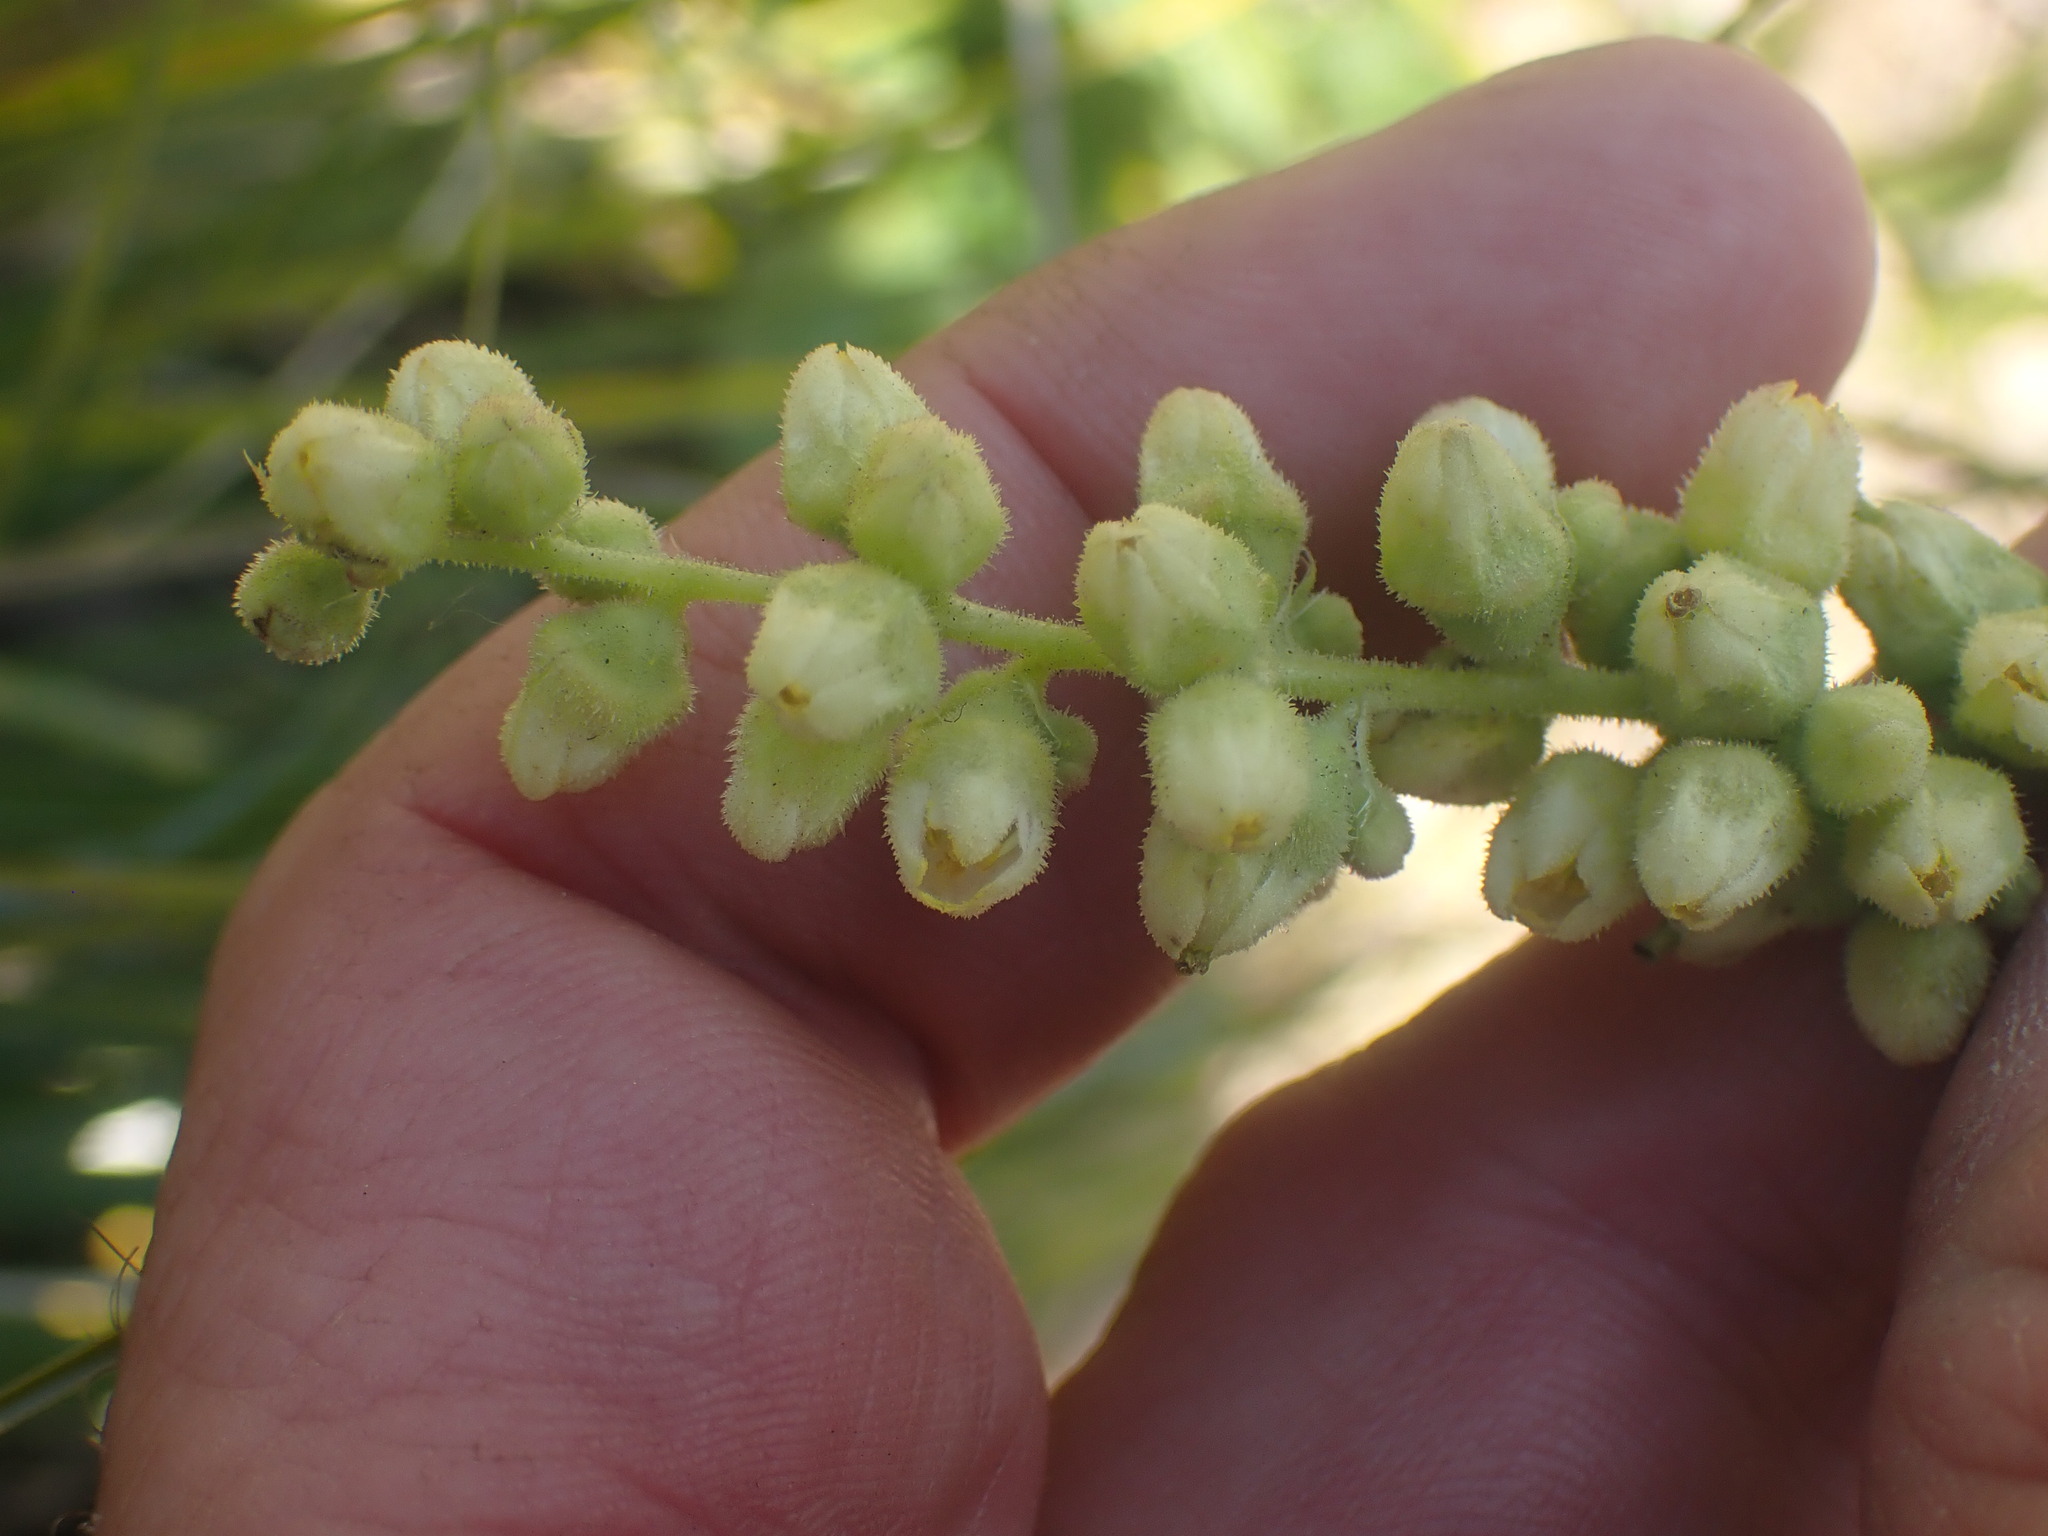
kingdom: Plantae
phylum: Tracheophyta
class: Magnoliopsida
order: Saxifragales
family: Saxifragaceae
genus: Heuchera
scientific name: Heuchera cylindrica
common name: Mat alumroot
